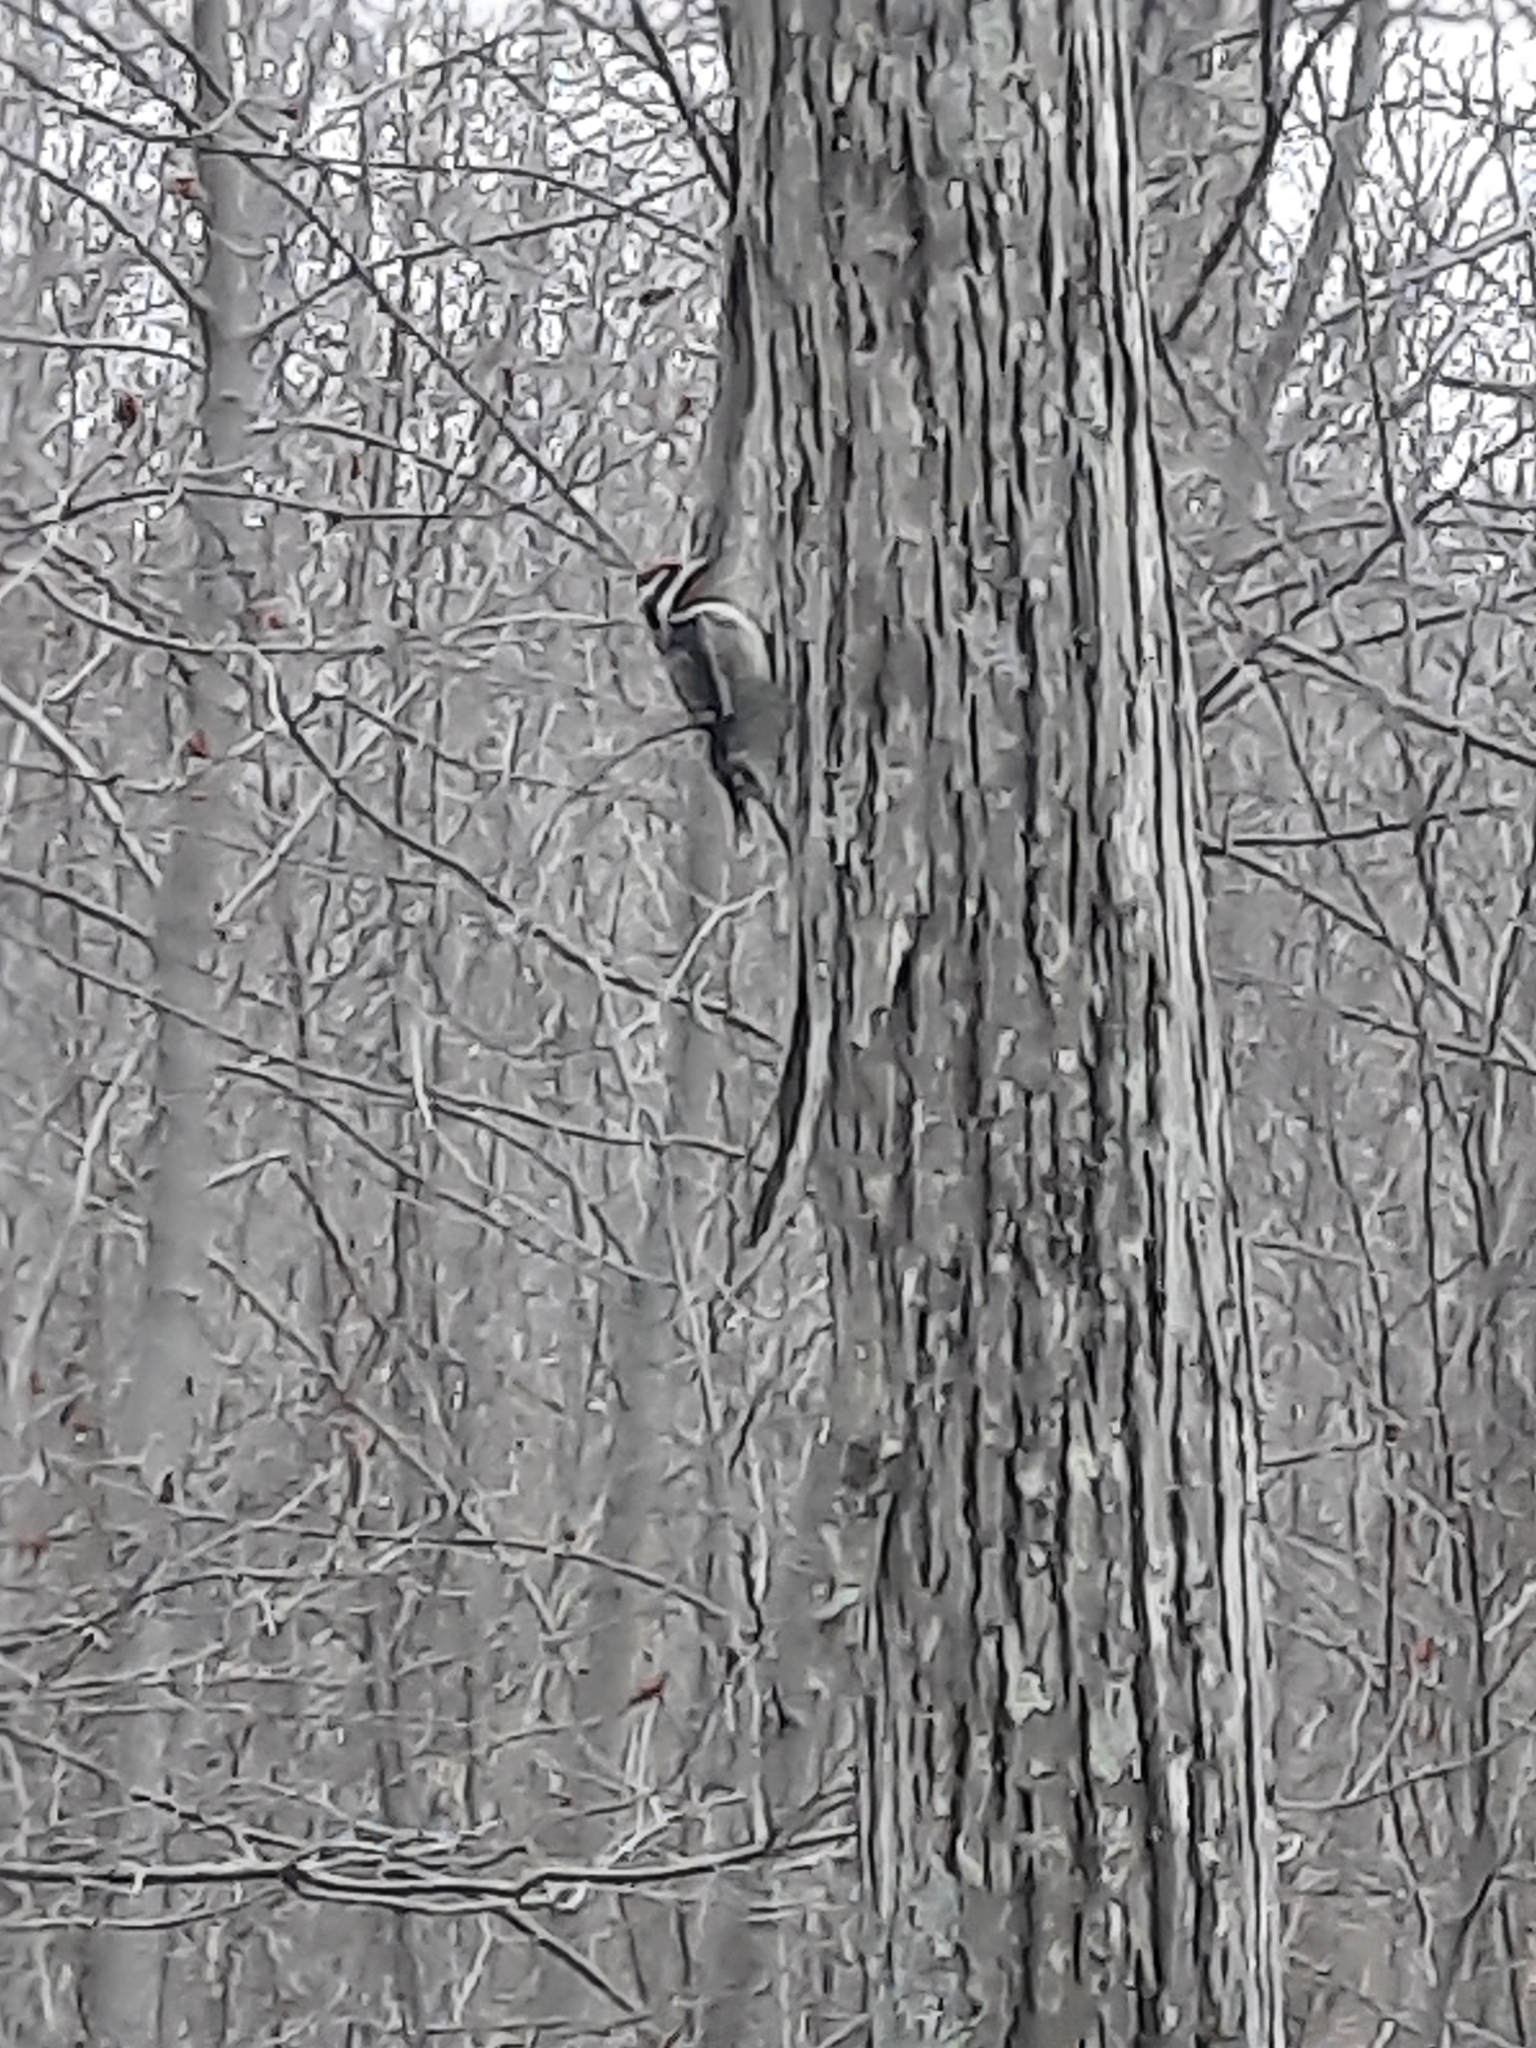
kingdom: Animalia
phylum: Chordata
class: Aves
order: Piciformes
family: Picidae
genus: Sphyrapicus
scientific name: Sphyrapicus varius
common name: Yellow-bellied sapsucker
